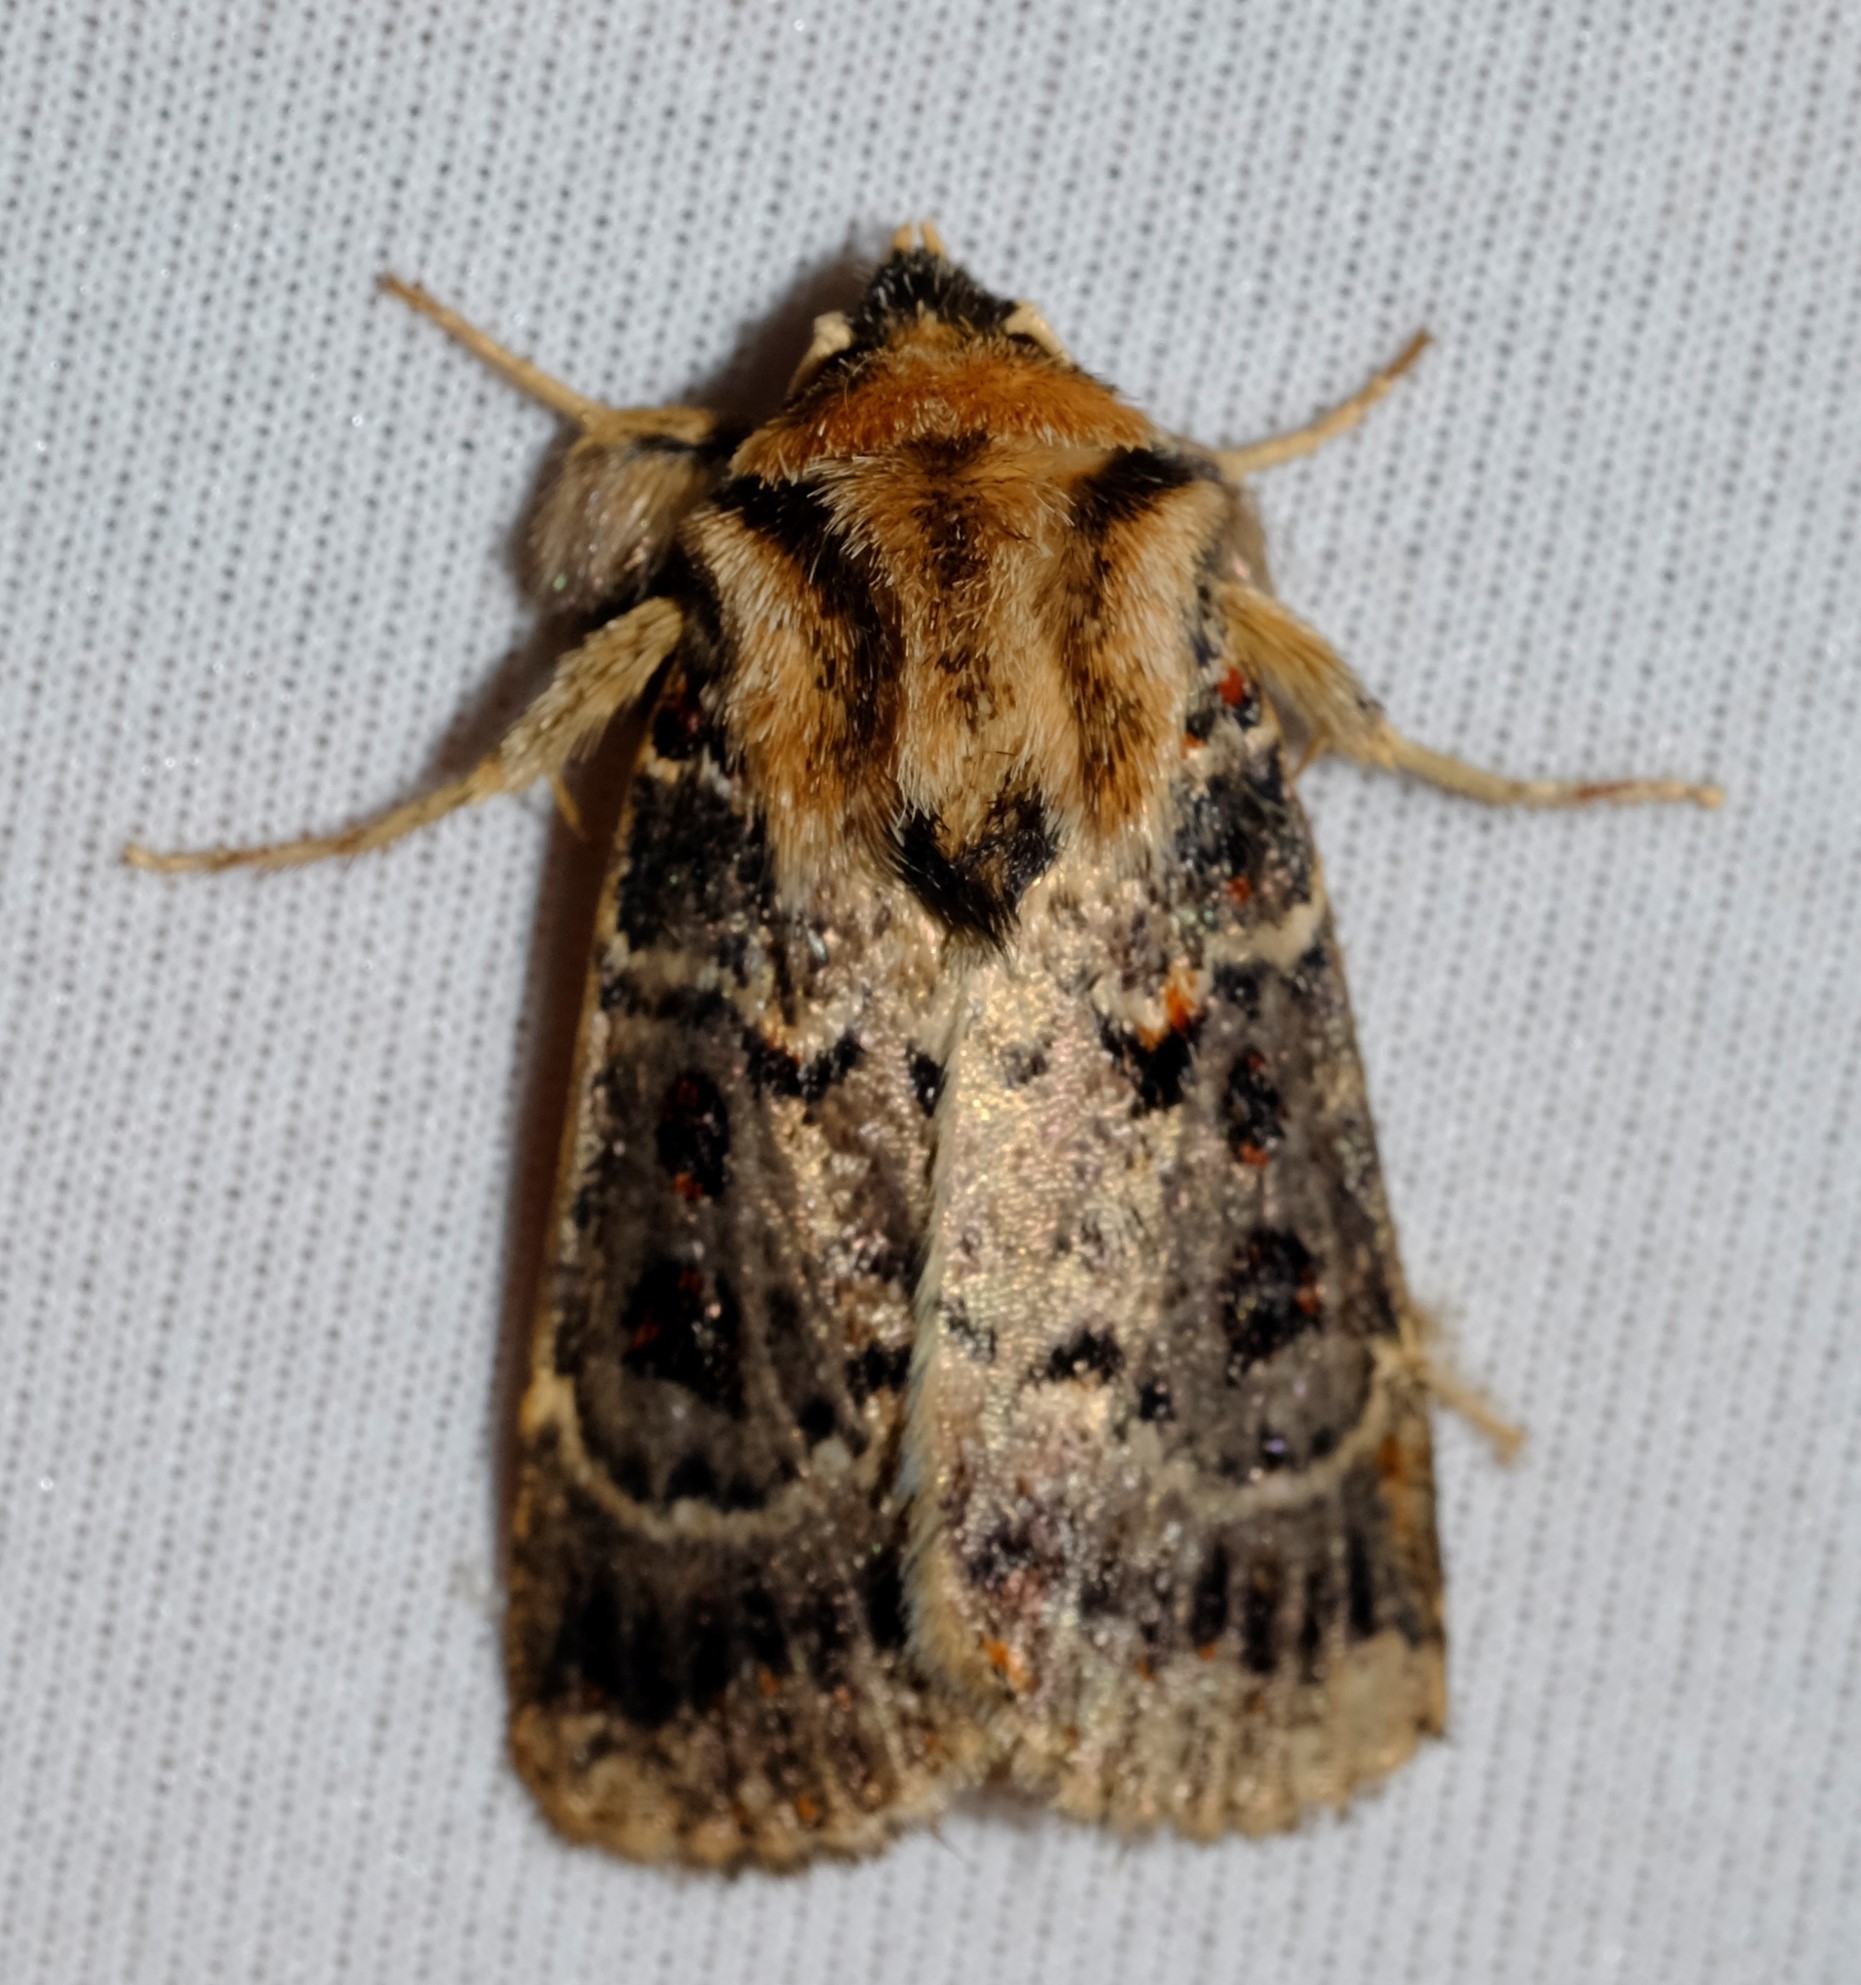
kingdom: Animalia
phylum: Arthropoda
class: Insecta
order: Lepidoptera
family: Noctuidae
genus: Proteuxoa
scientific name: Proteuxoa sanguinipuncta
